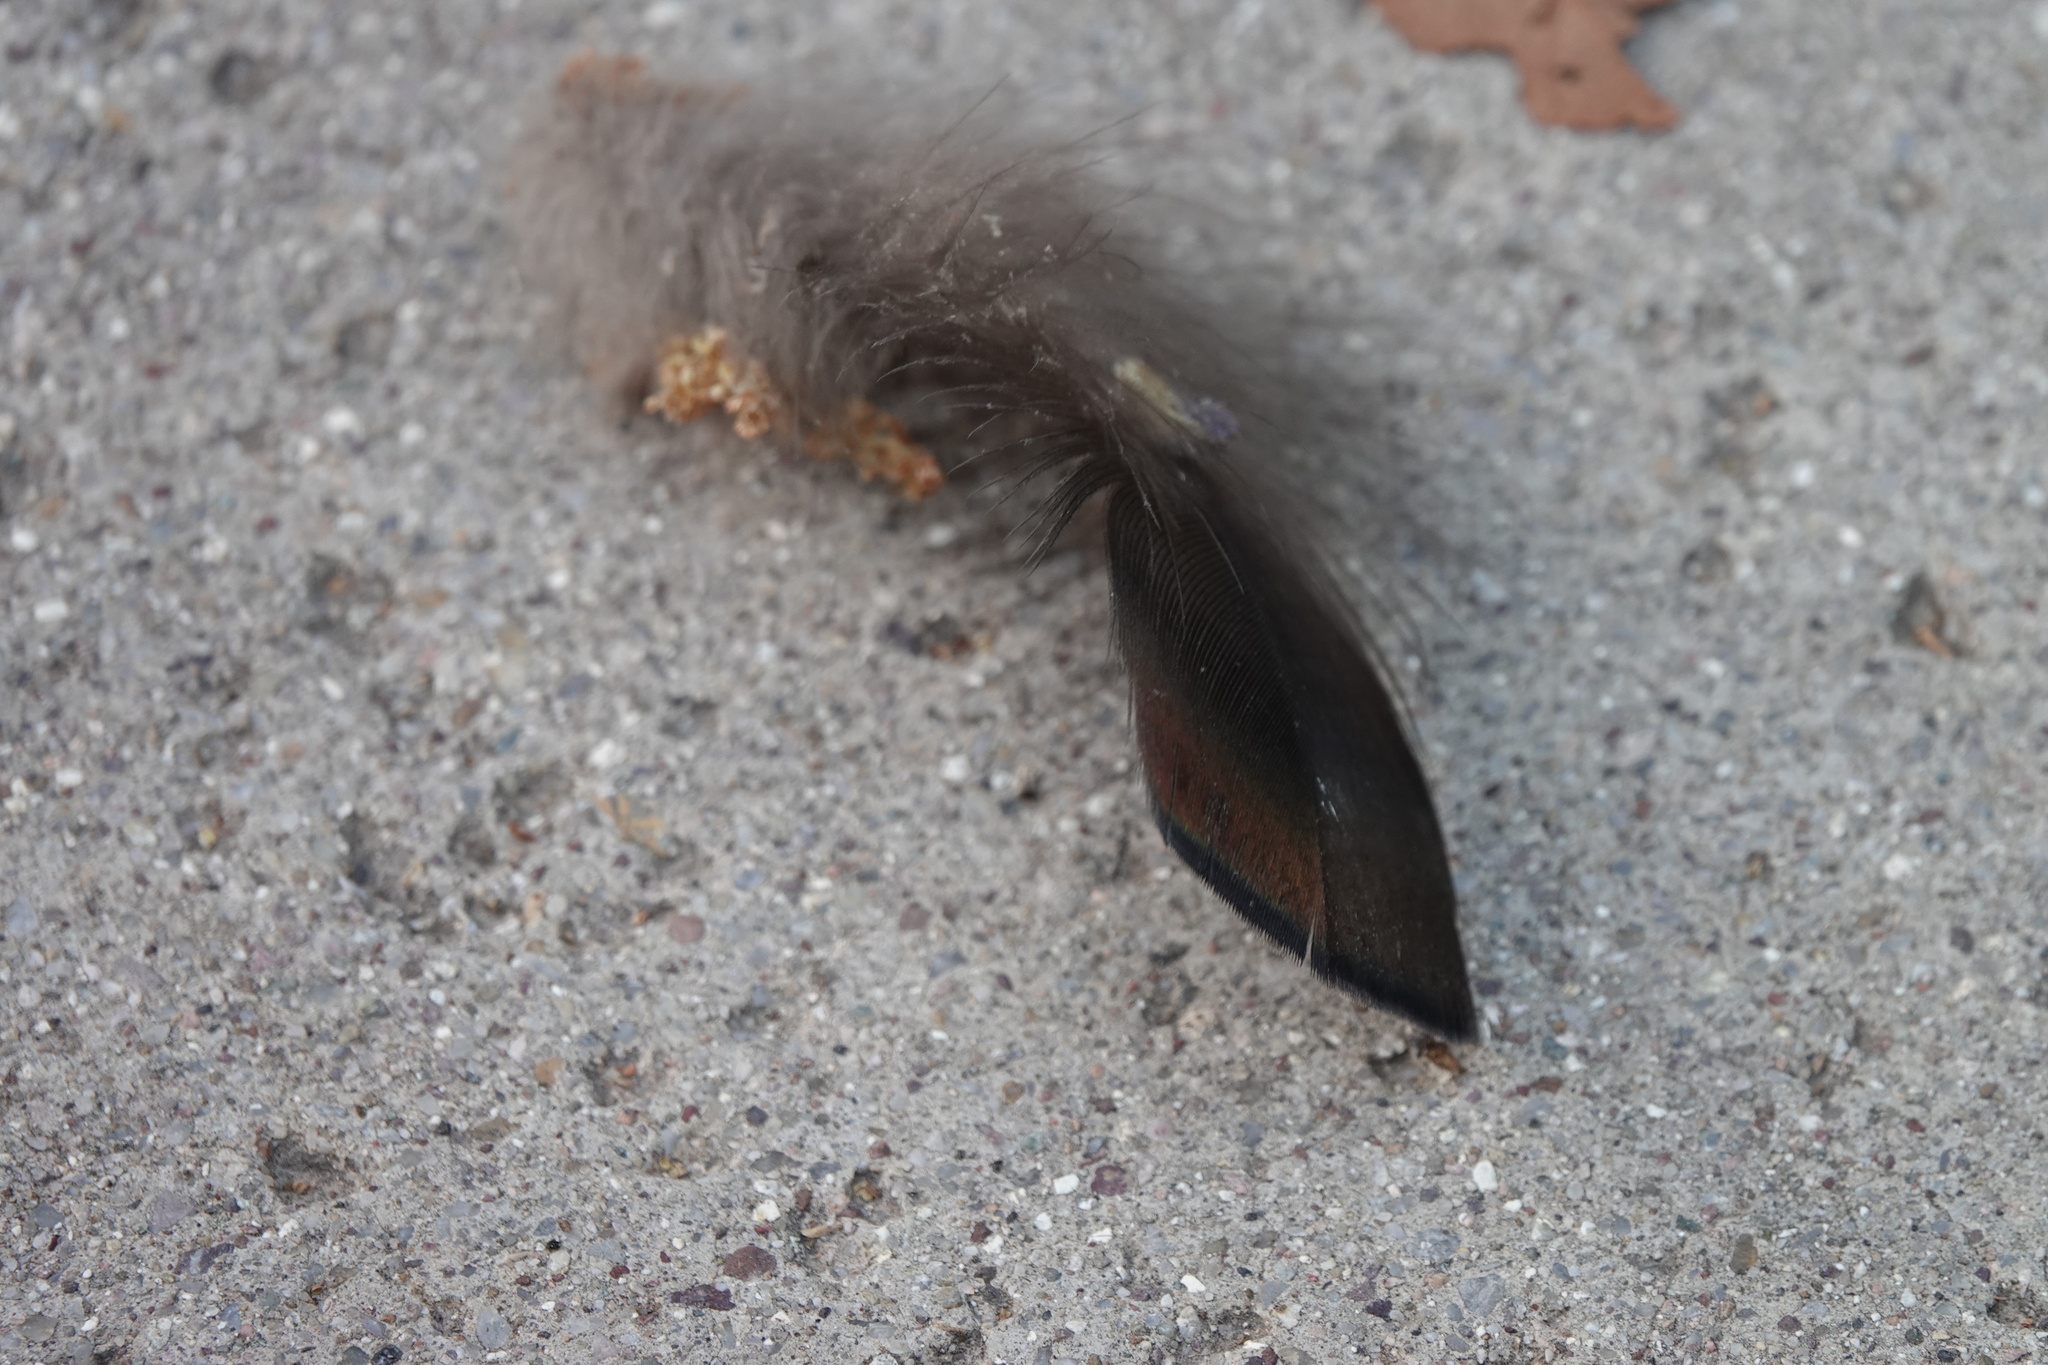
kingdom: Animalia
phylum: Chordata
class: Aves
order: Galliformes
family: Phasianidae
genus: Meleagris
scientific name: Meleagris gallopavo
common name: Wild turkey
